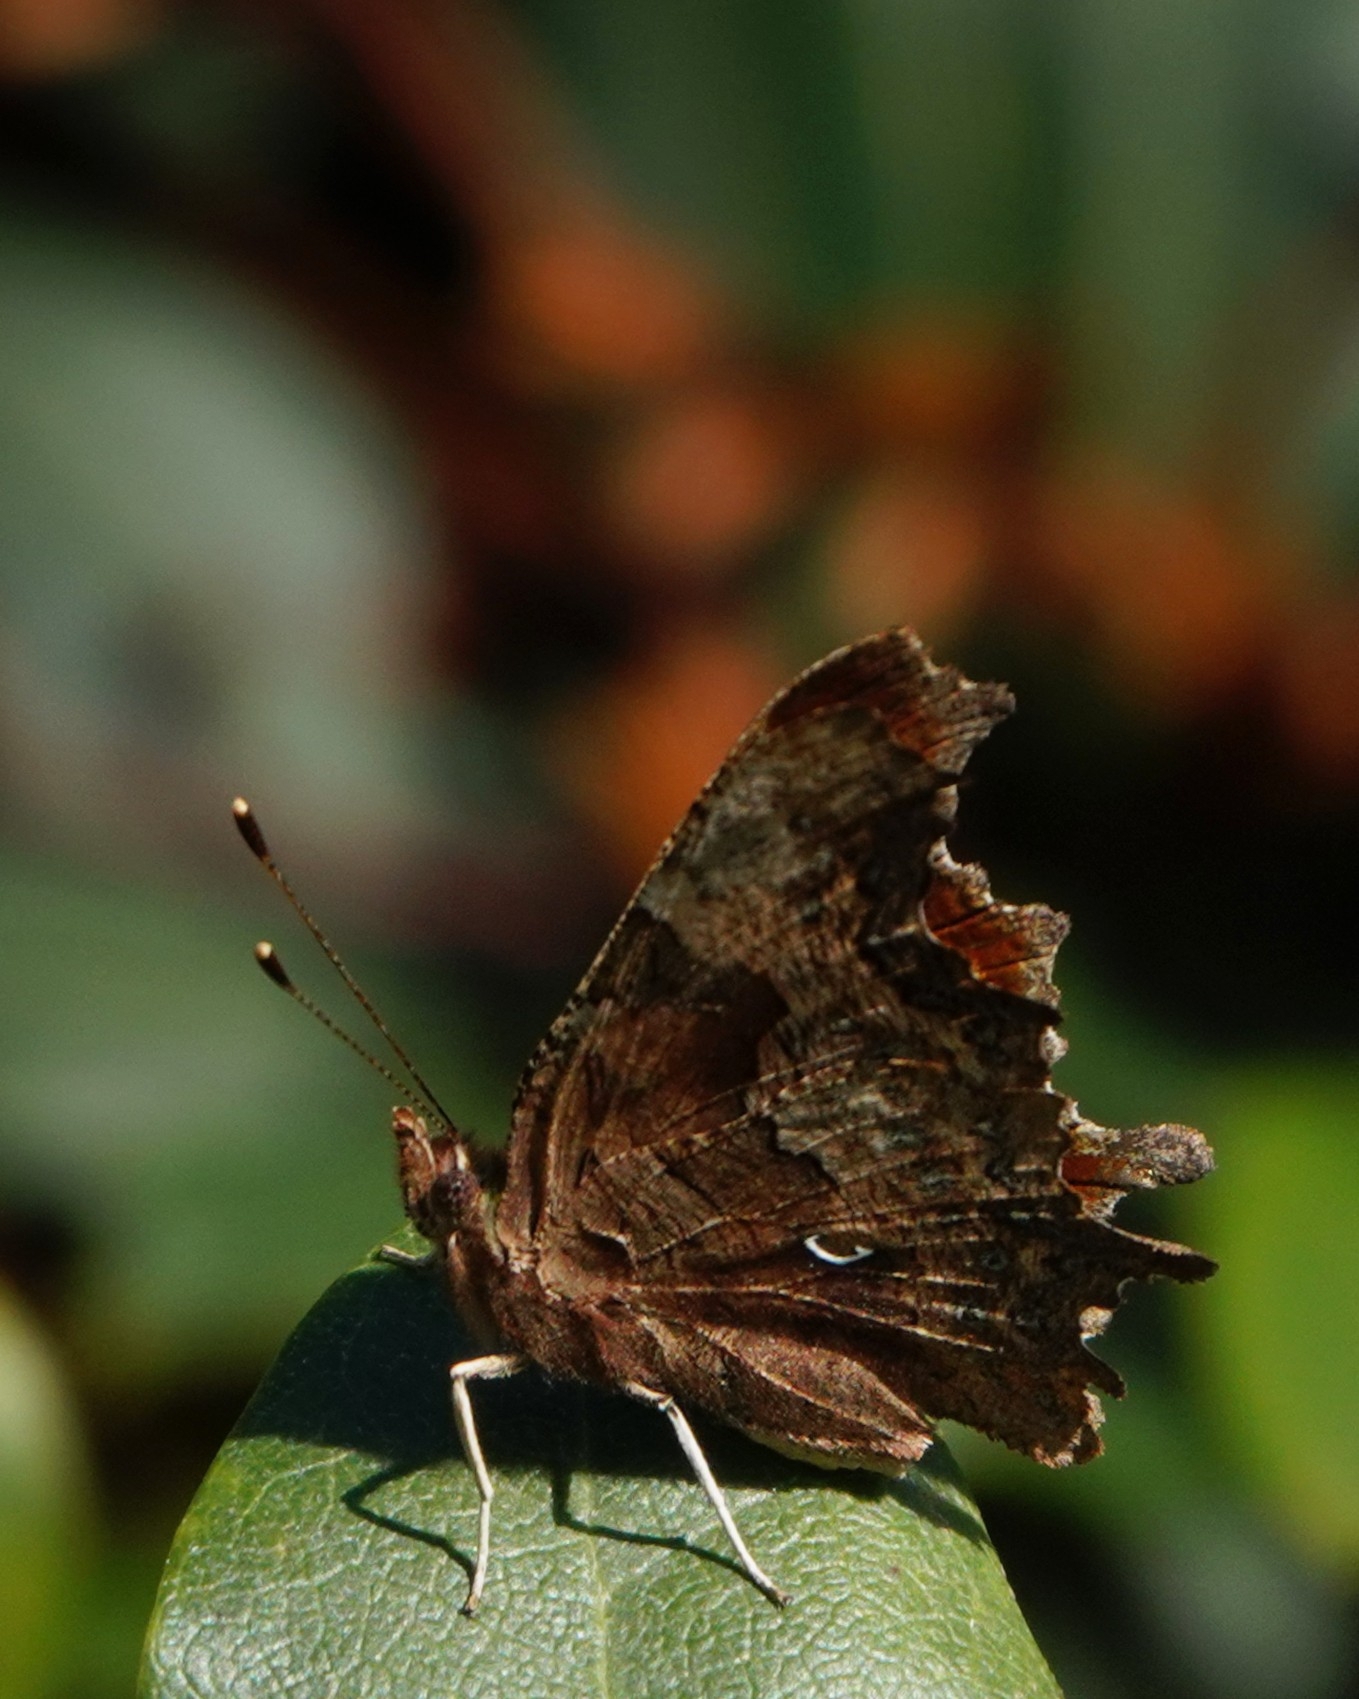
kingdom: Animalia
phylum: Arthropoda
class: Insecta
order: Lepidoptera
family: Nymphalidae
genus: Polygonia
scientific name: Polygonia c-album
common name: Comma
